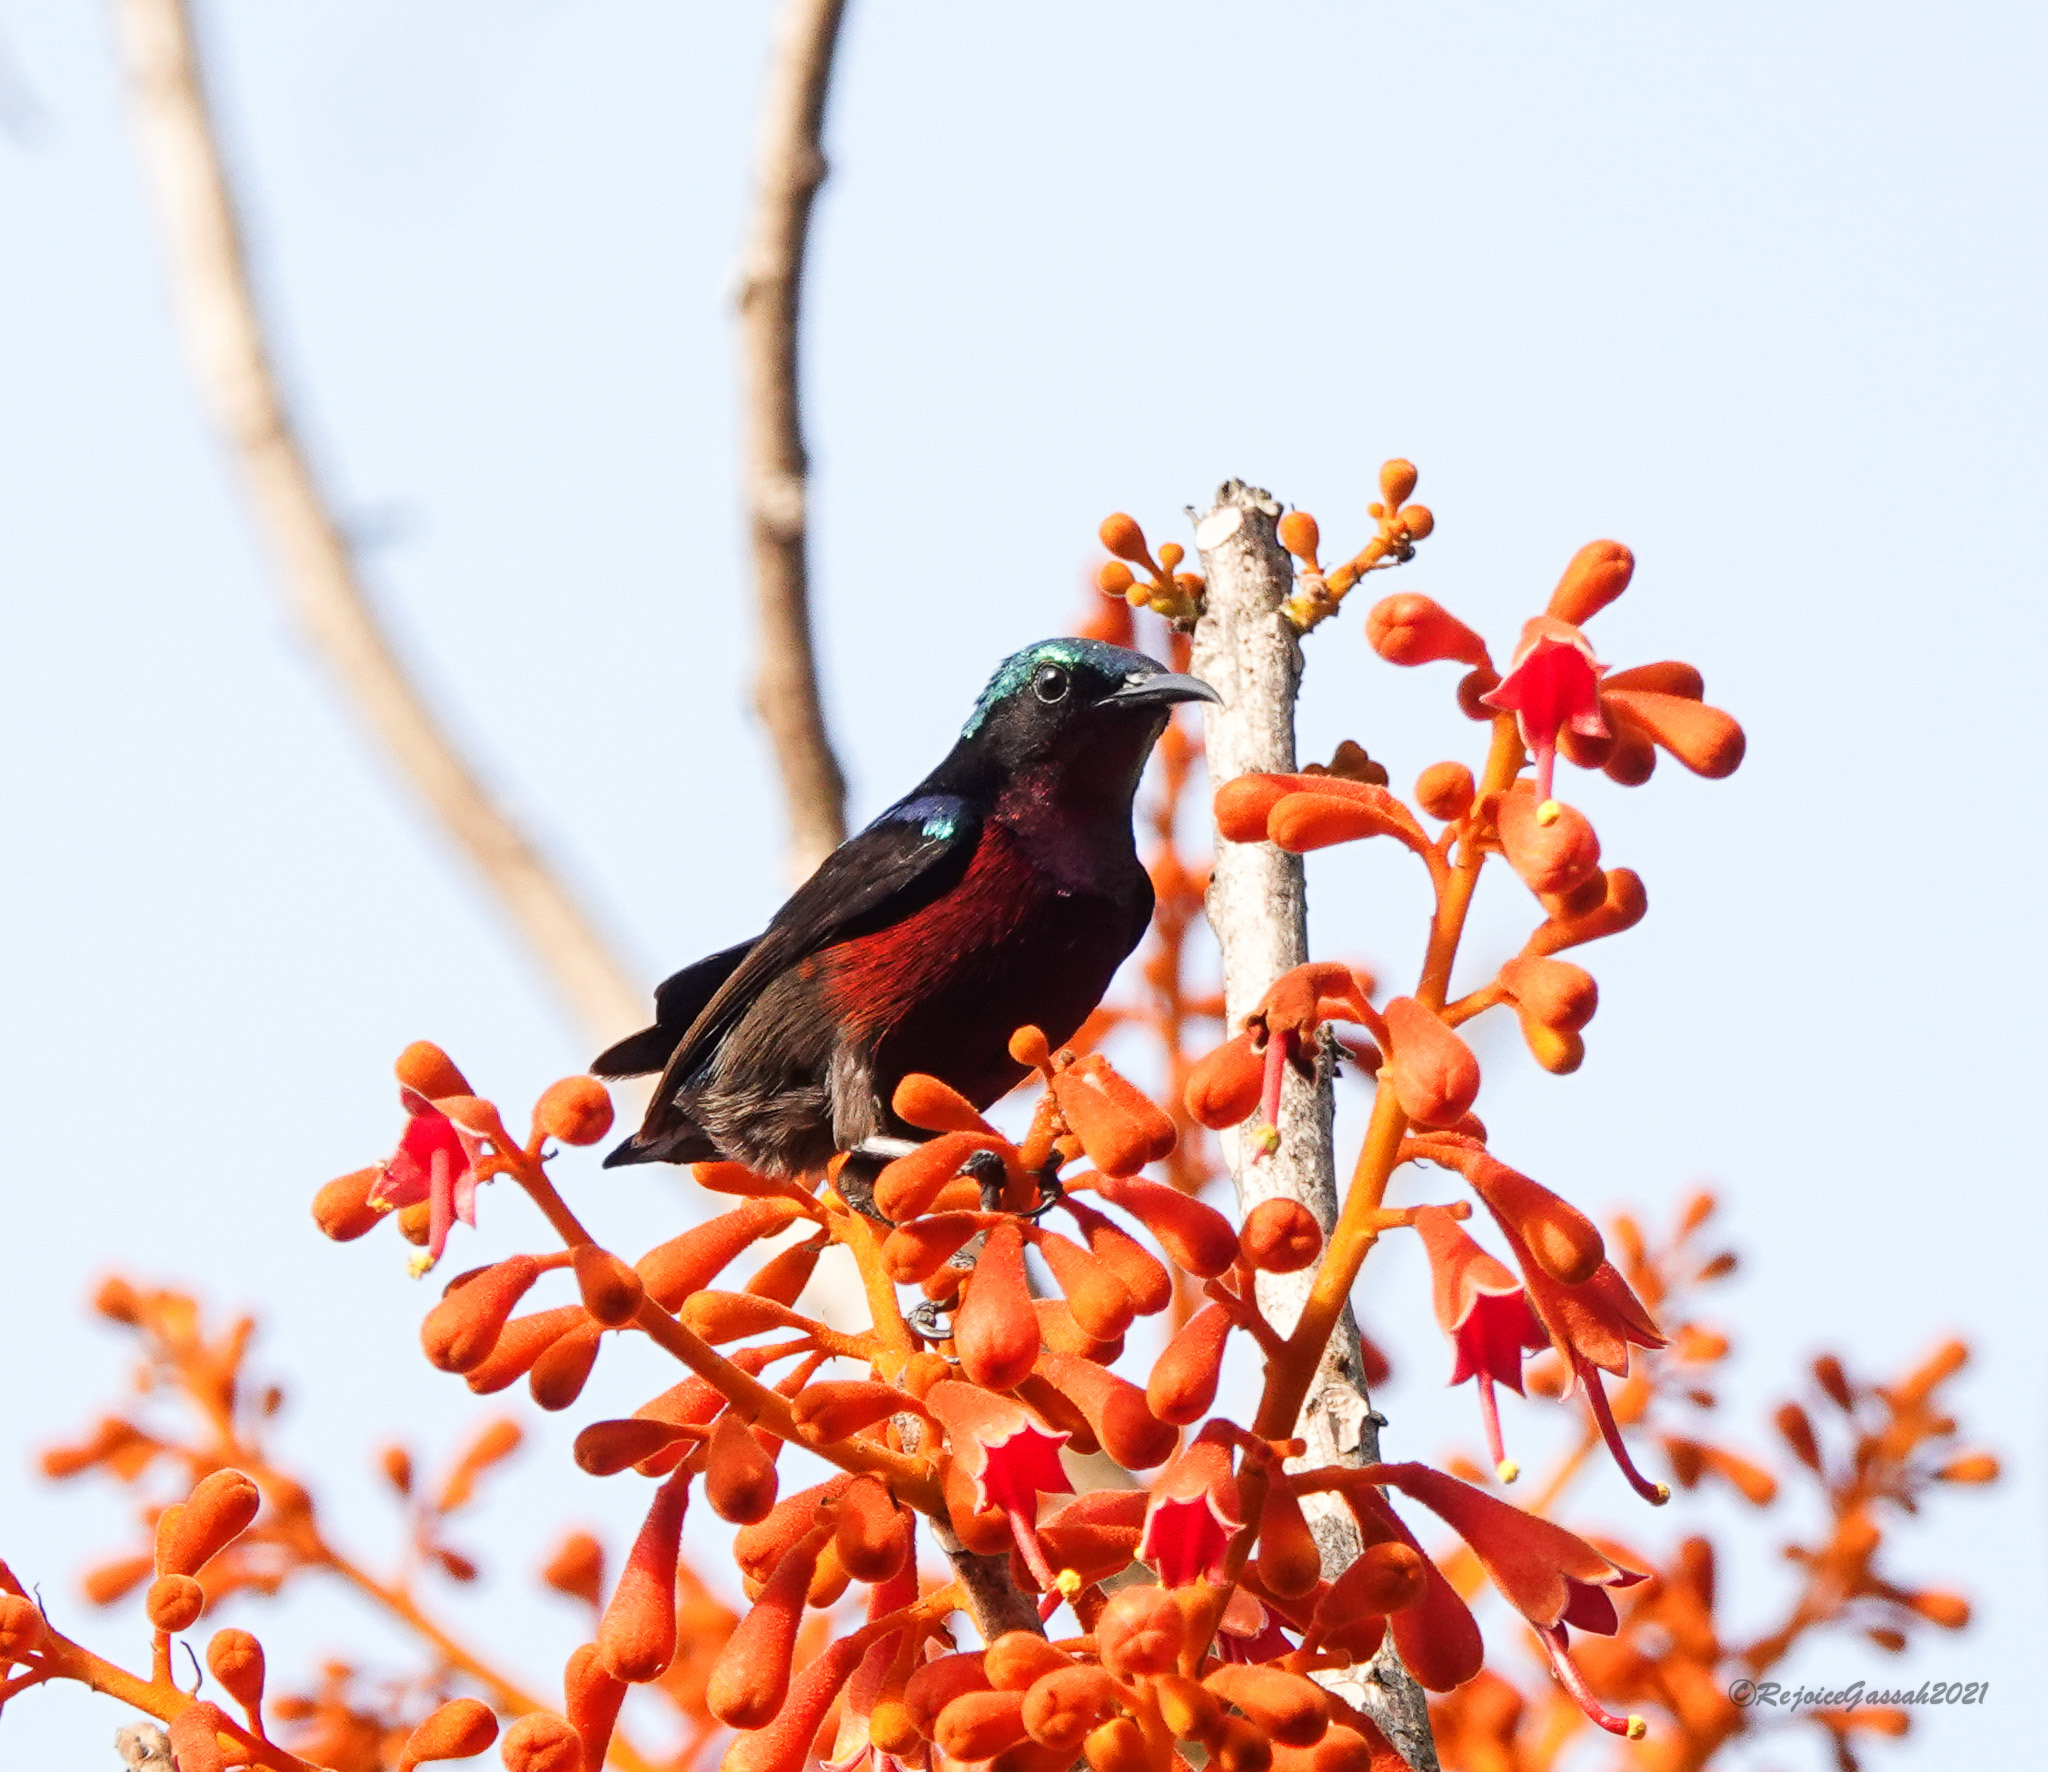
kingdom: Animalia
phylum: Chordata
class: Aves
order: Passeriformes
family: Nectariniidae
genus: Leptocoma
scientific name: Leptocoma brasiliana
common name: Van hasselt's sunbird
